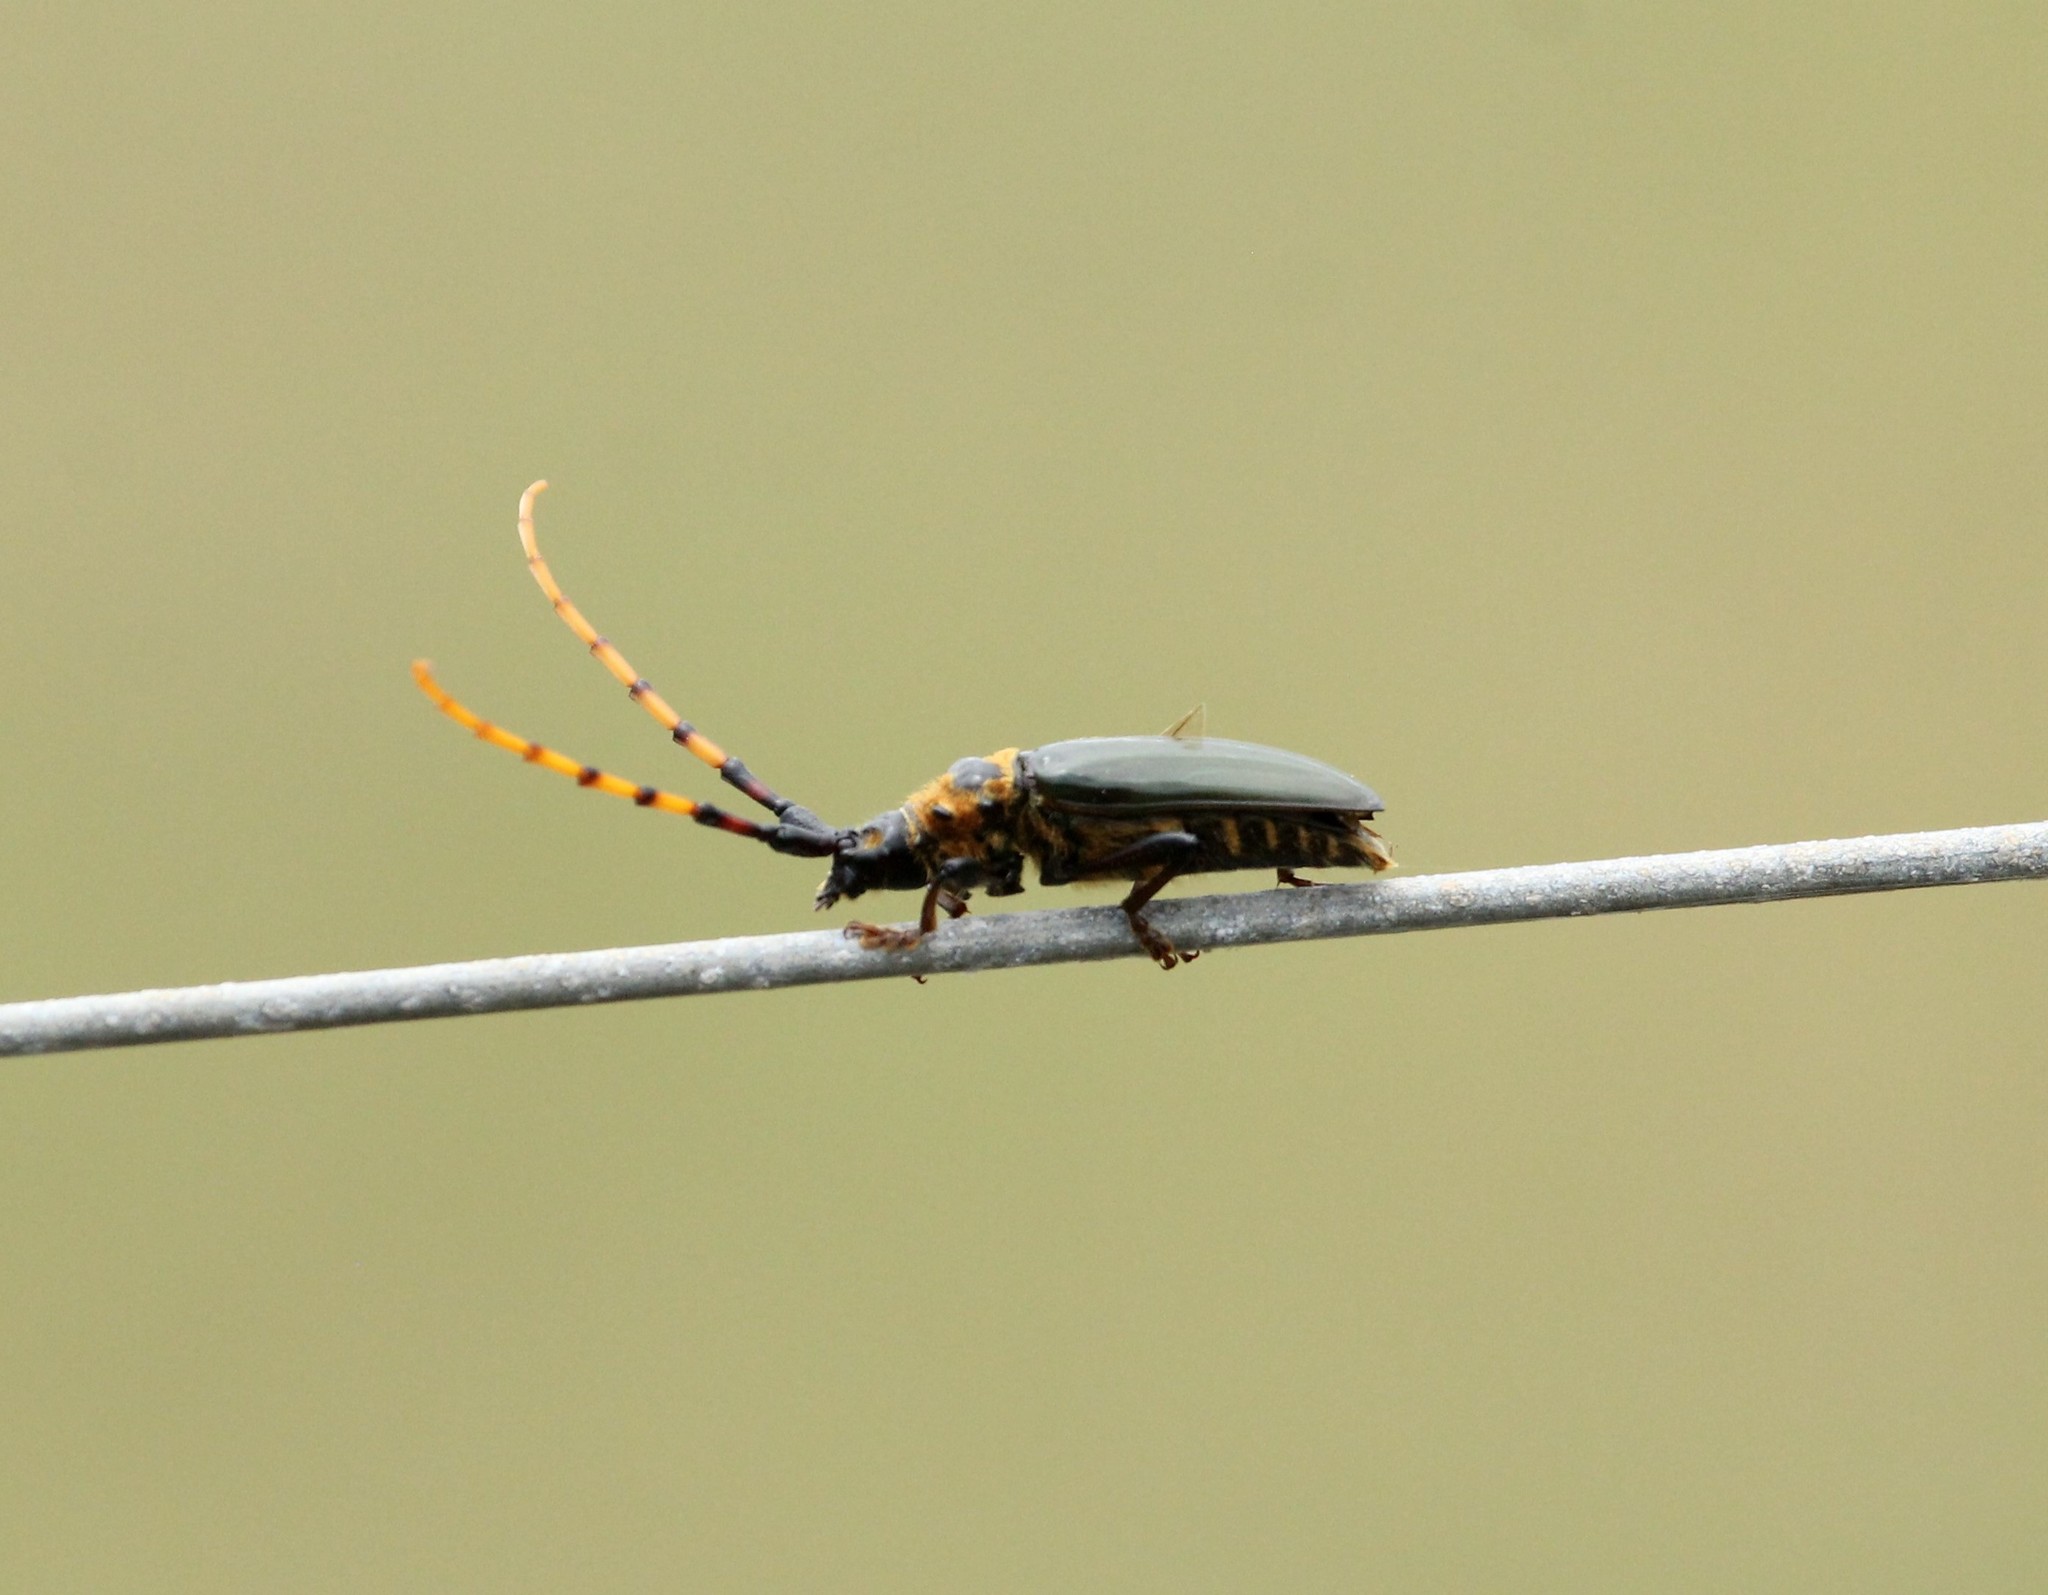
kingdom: Animalia
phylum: Arthropoda
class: Insecta
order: Coleoptera
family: Cerambycidae
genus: Retrachydes
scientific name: Retrachydes thoracicus
